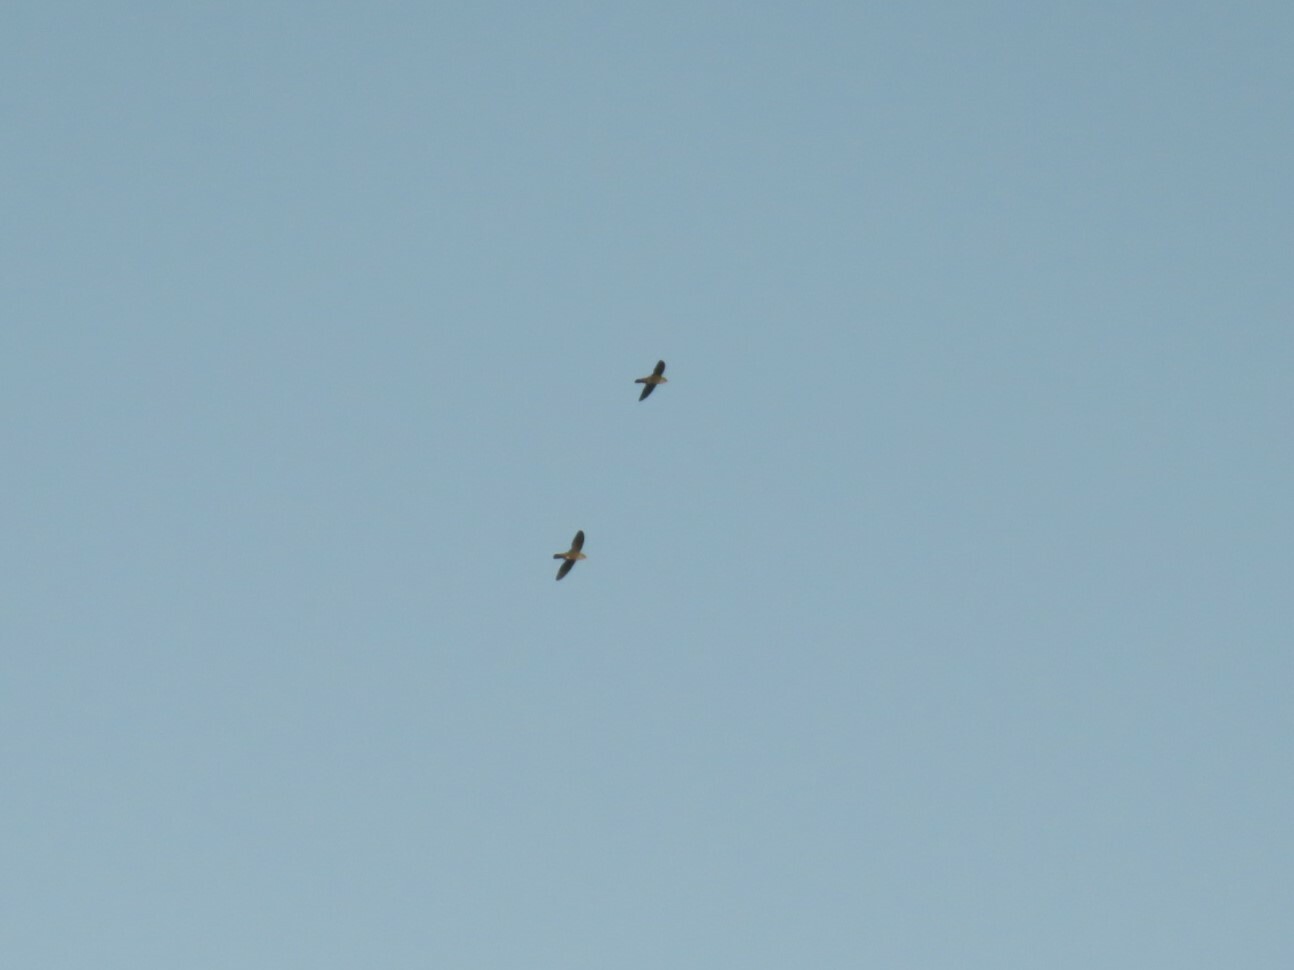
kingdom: Animalia
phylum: Chordata
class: Aves
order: Apodiformes
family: Apodidae
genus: Telacanthura
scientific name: Telacanthura ussheri
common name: Mottled spinetail
